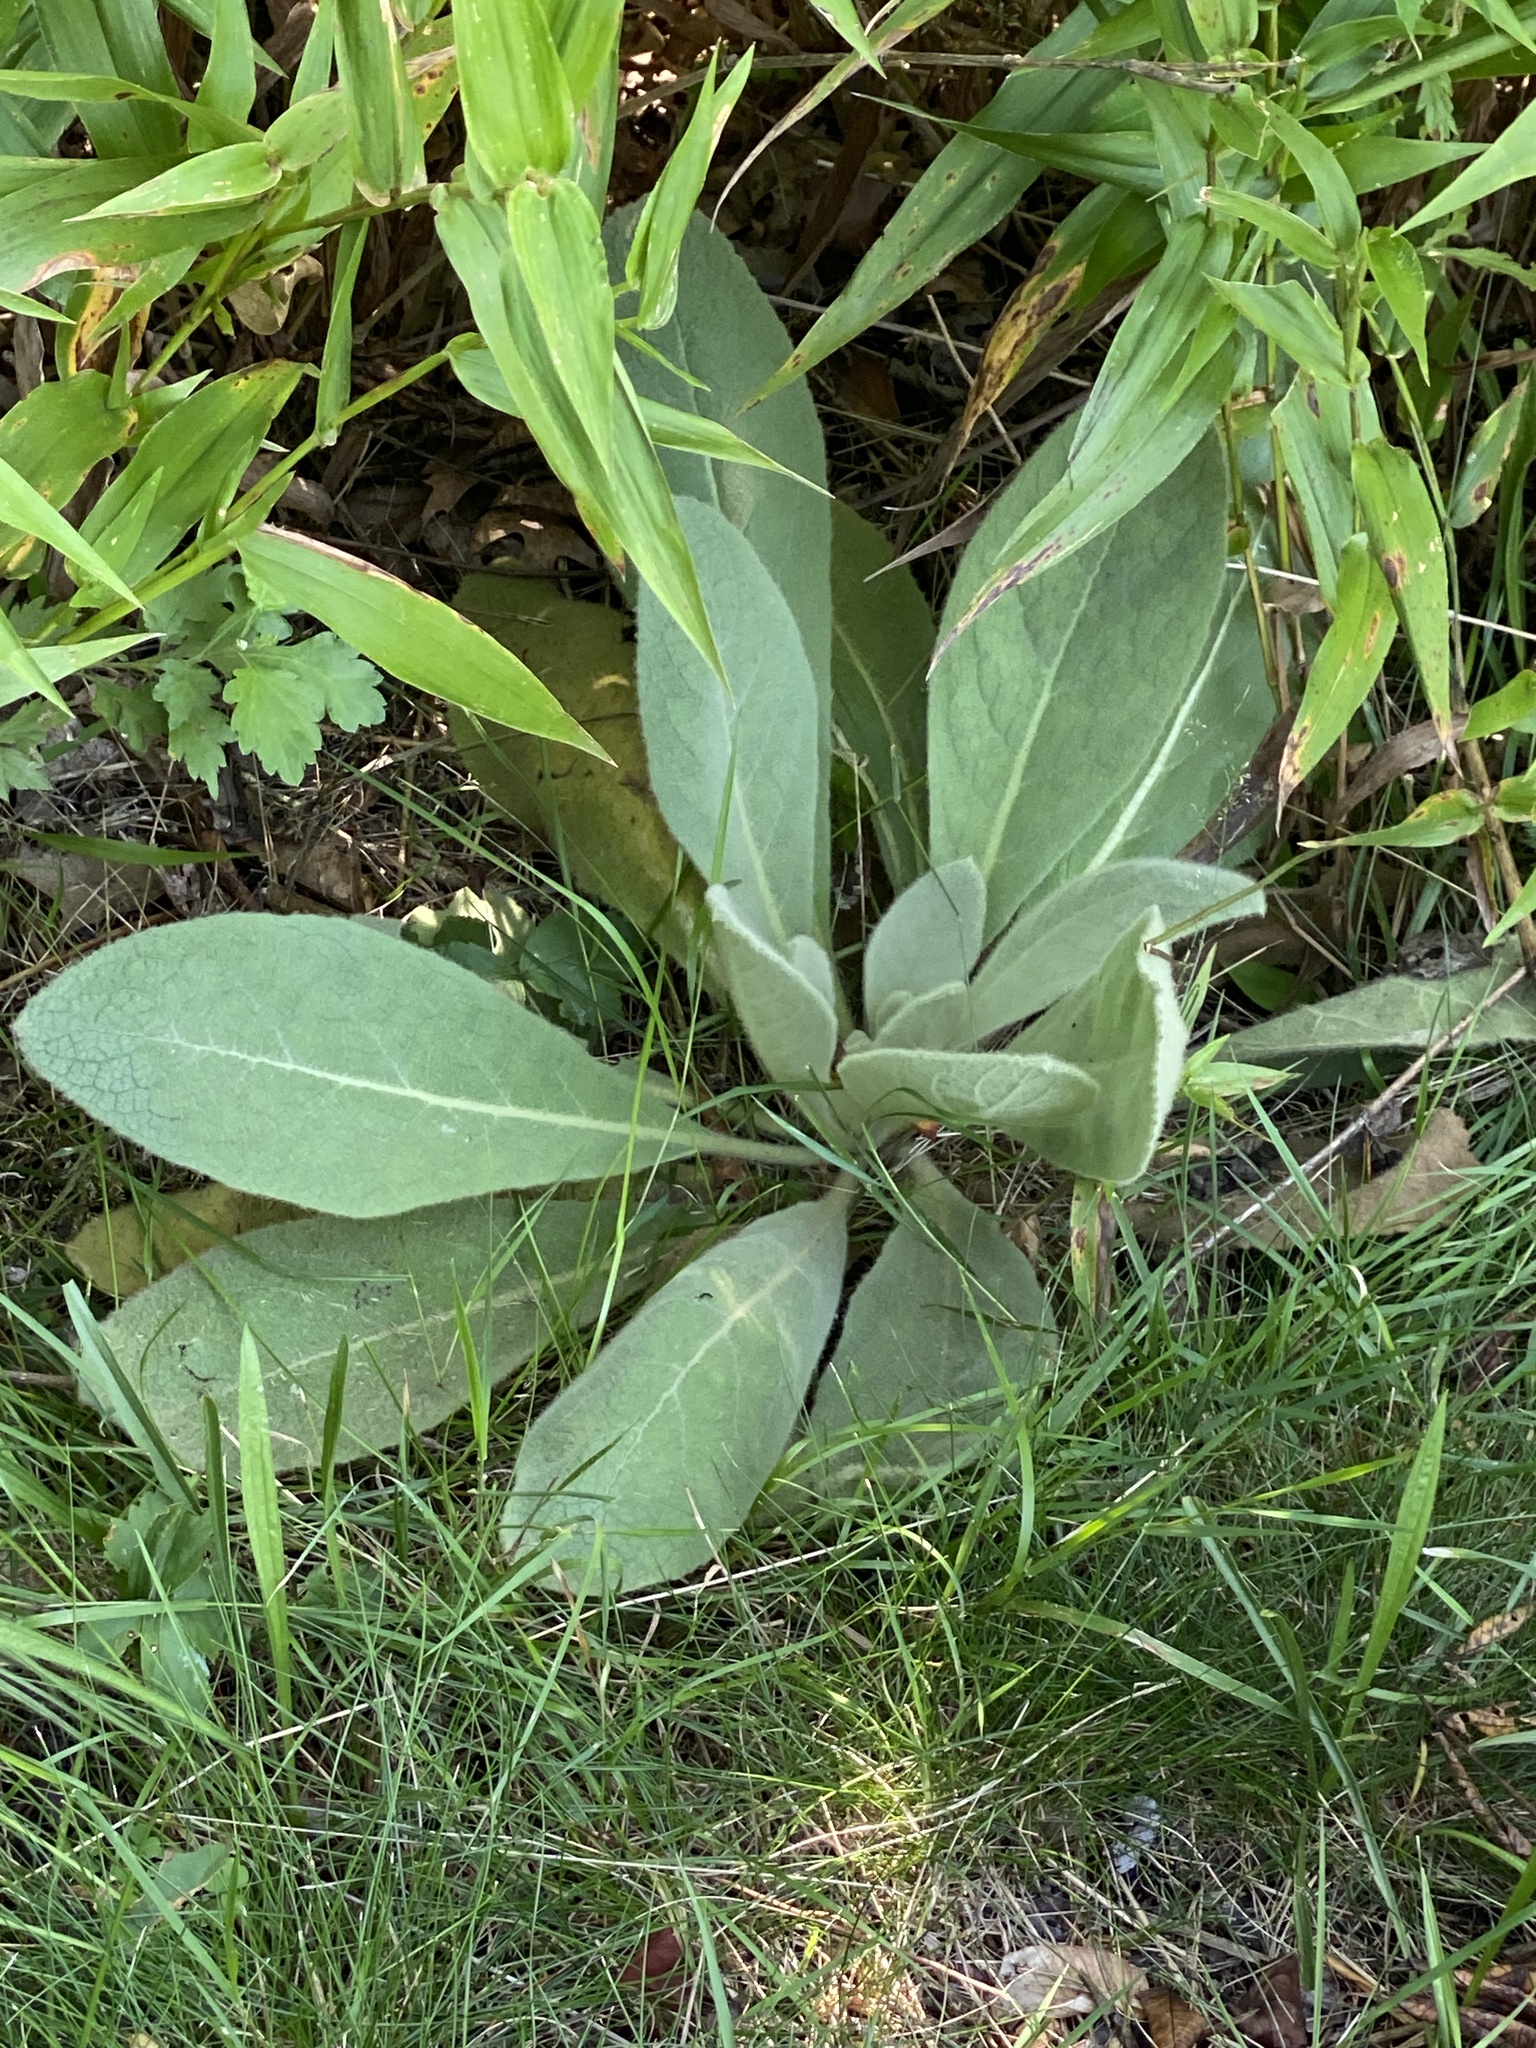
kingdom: Plantae
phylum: Tracheophyta
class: Magnoliopsida
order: Lamiales
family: Scrophulariaceae
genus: Verbascum
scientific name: Verbascum thapsus
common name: Common mullein
